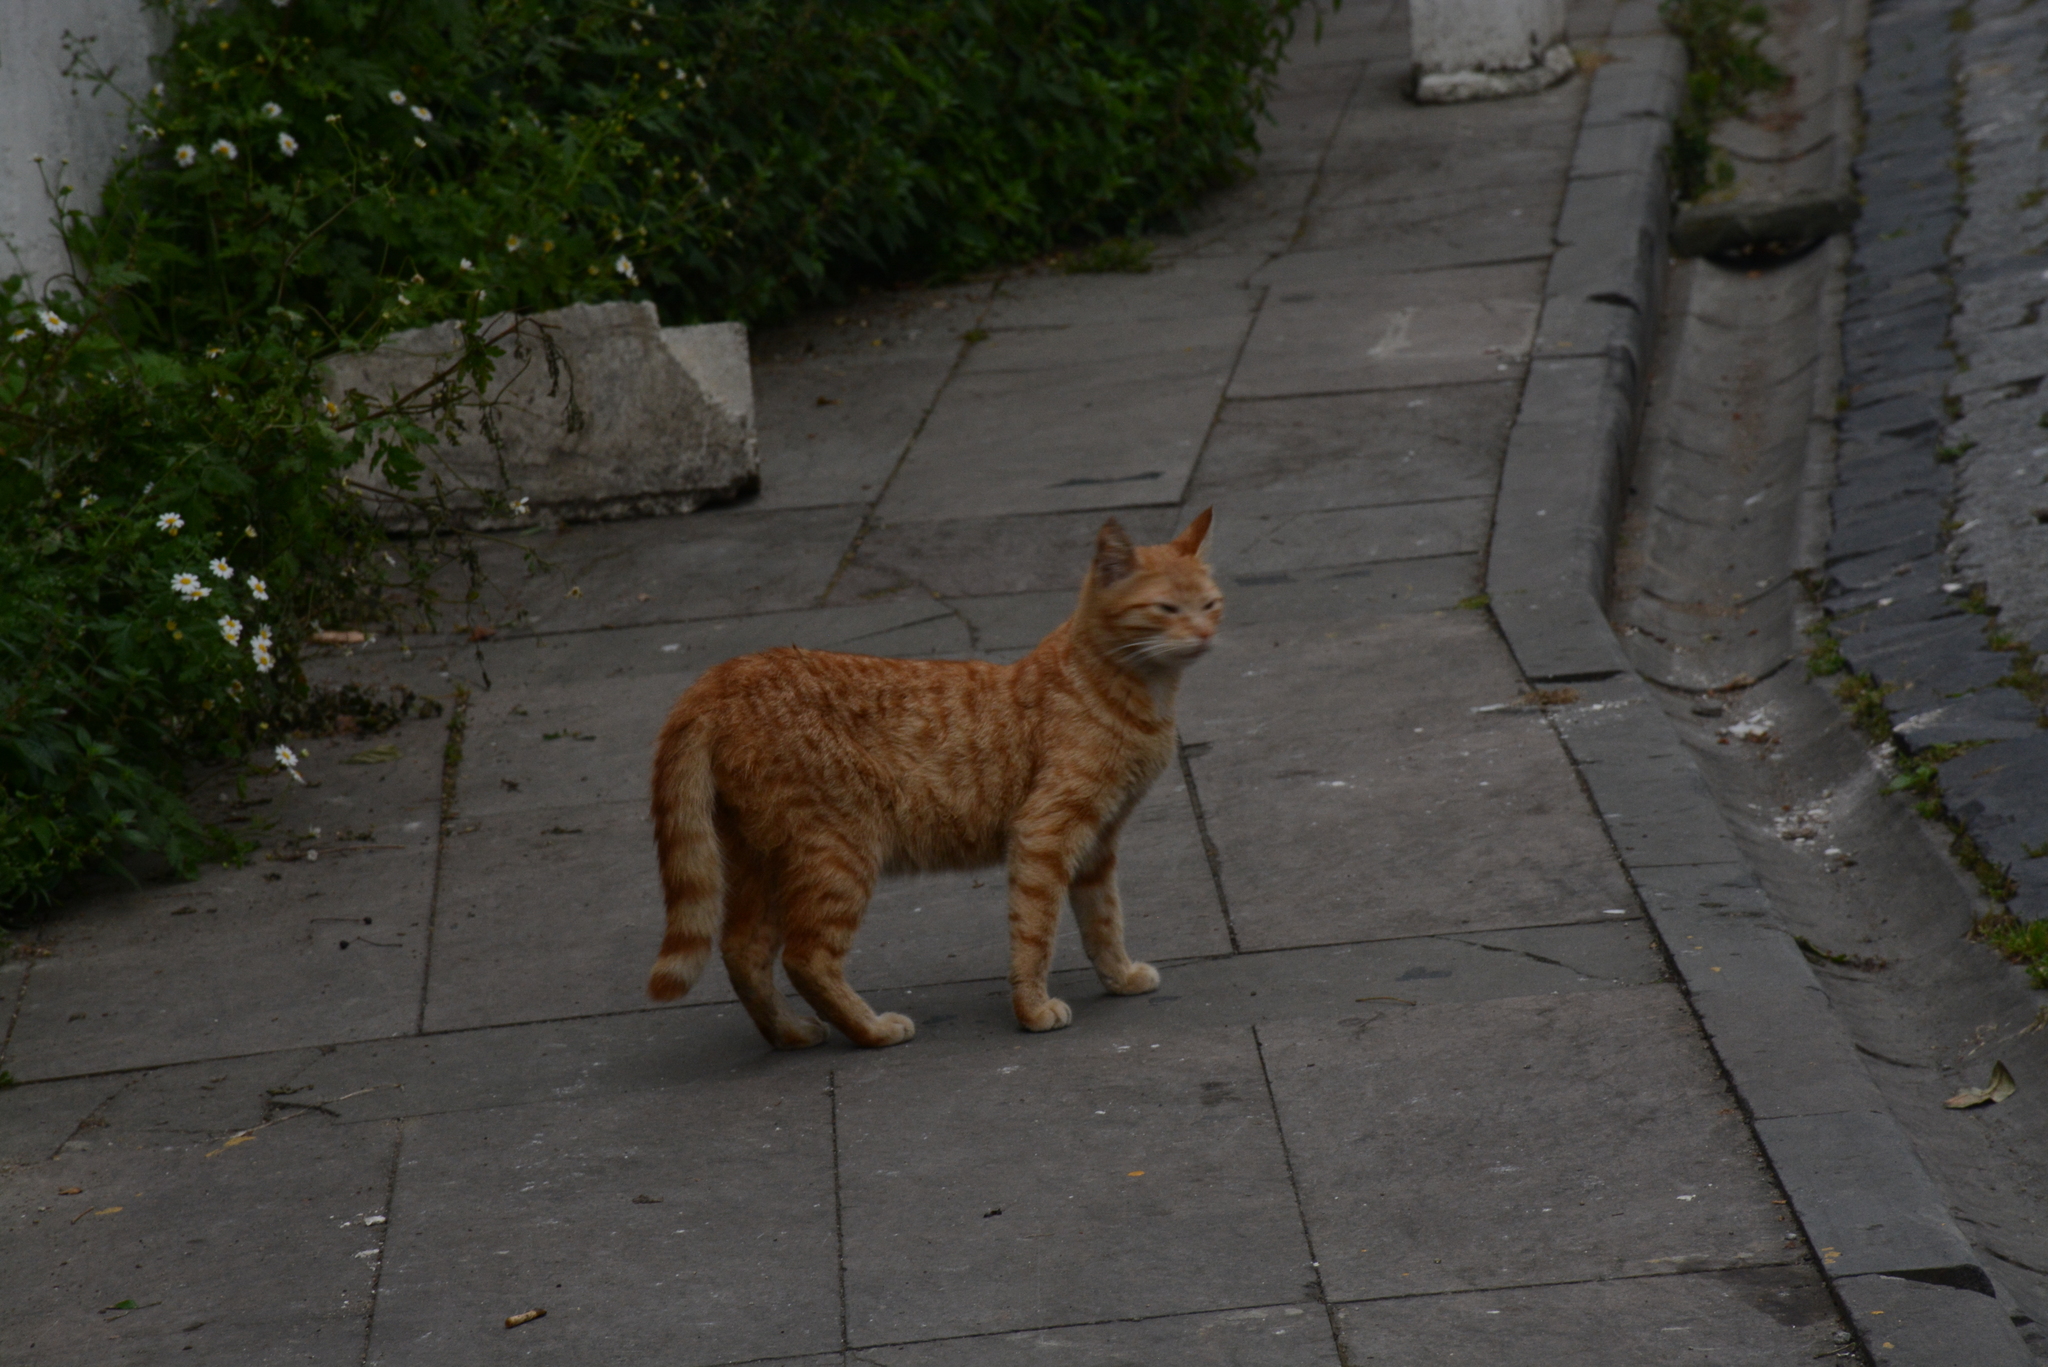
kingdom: Animalia
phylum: Chordata
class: Mammalia
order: Carnivora
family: Felidae
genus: Felis
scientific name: Felis catus
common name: Domestic cat
